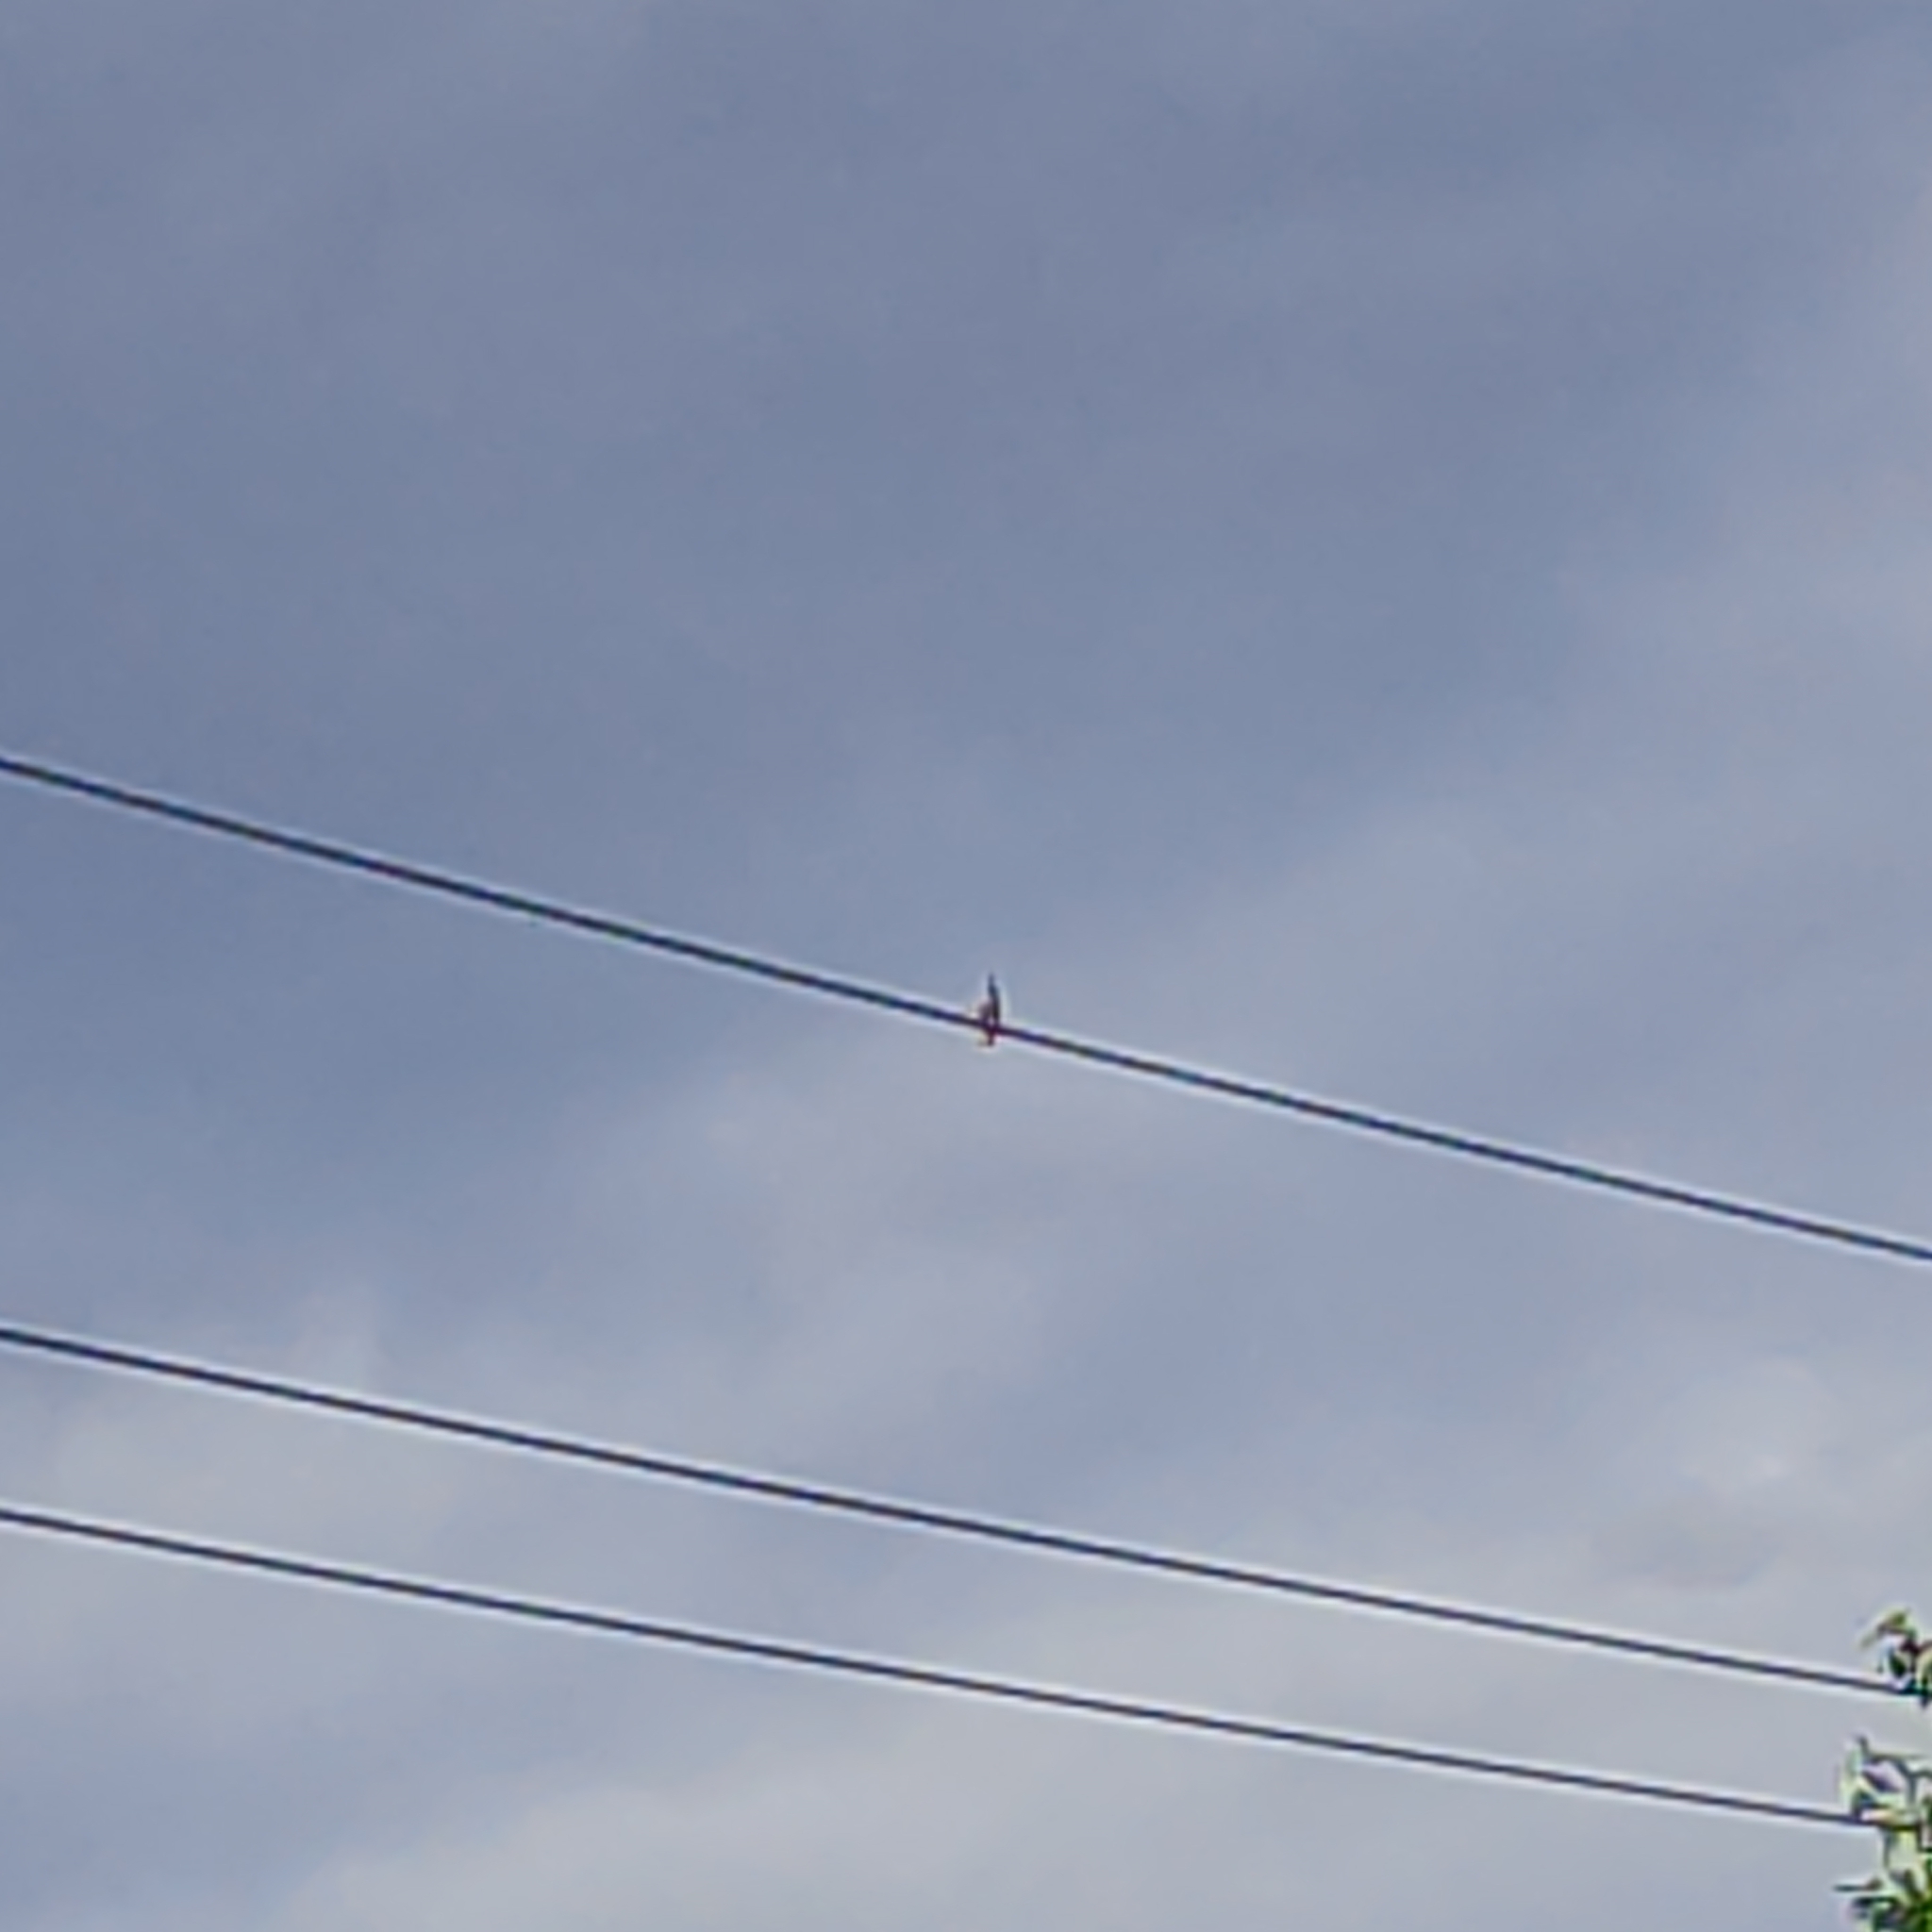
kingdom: Animalia
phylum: Chordata
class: Aves
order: Coraciiformes
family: Alcedinidae
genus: Todiramphus
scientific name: Todiramphus sanctus
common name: Sacred kingfisher
